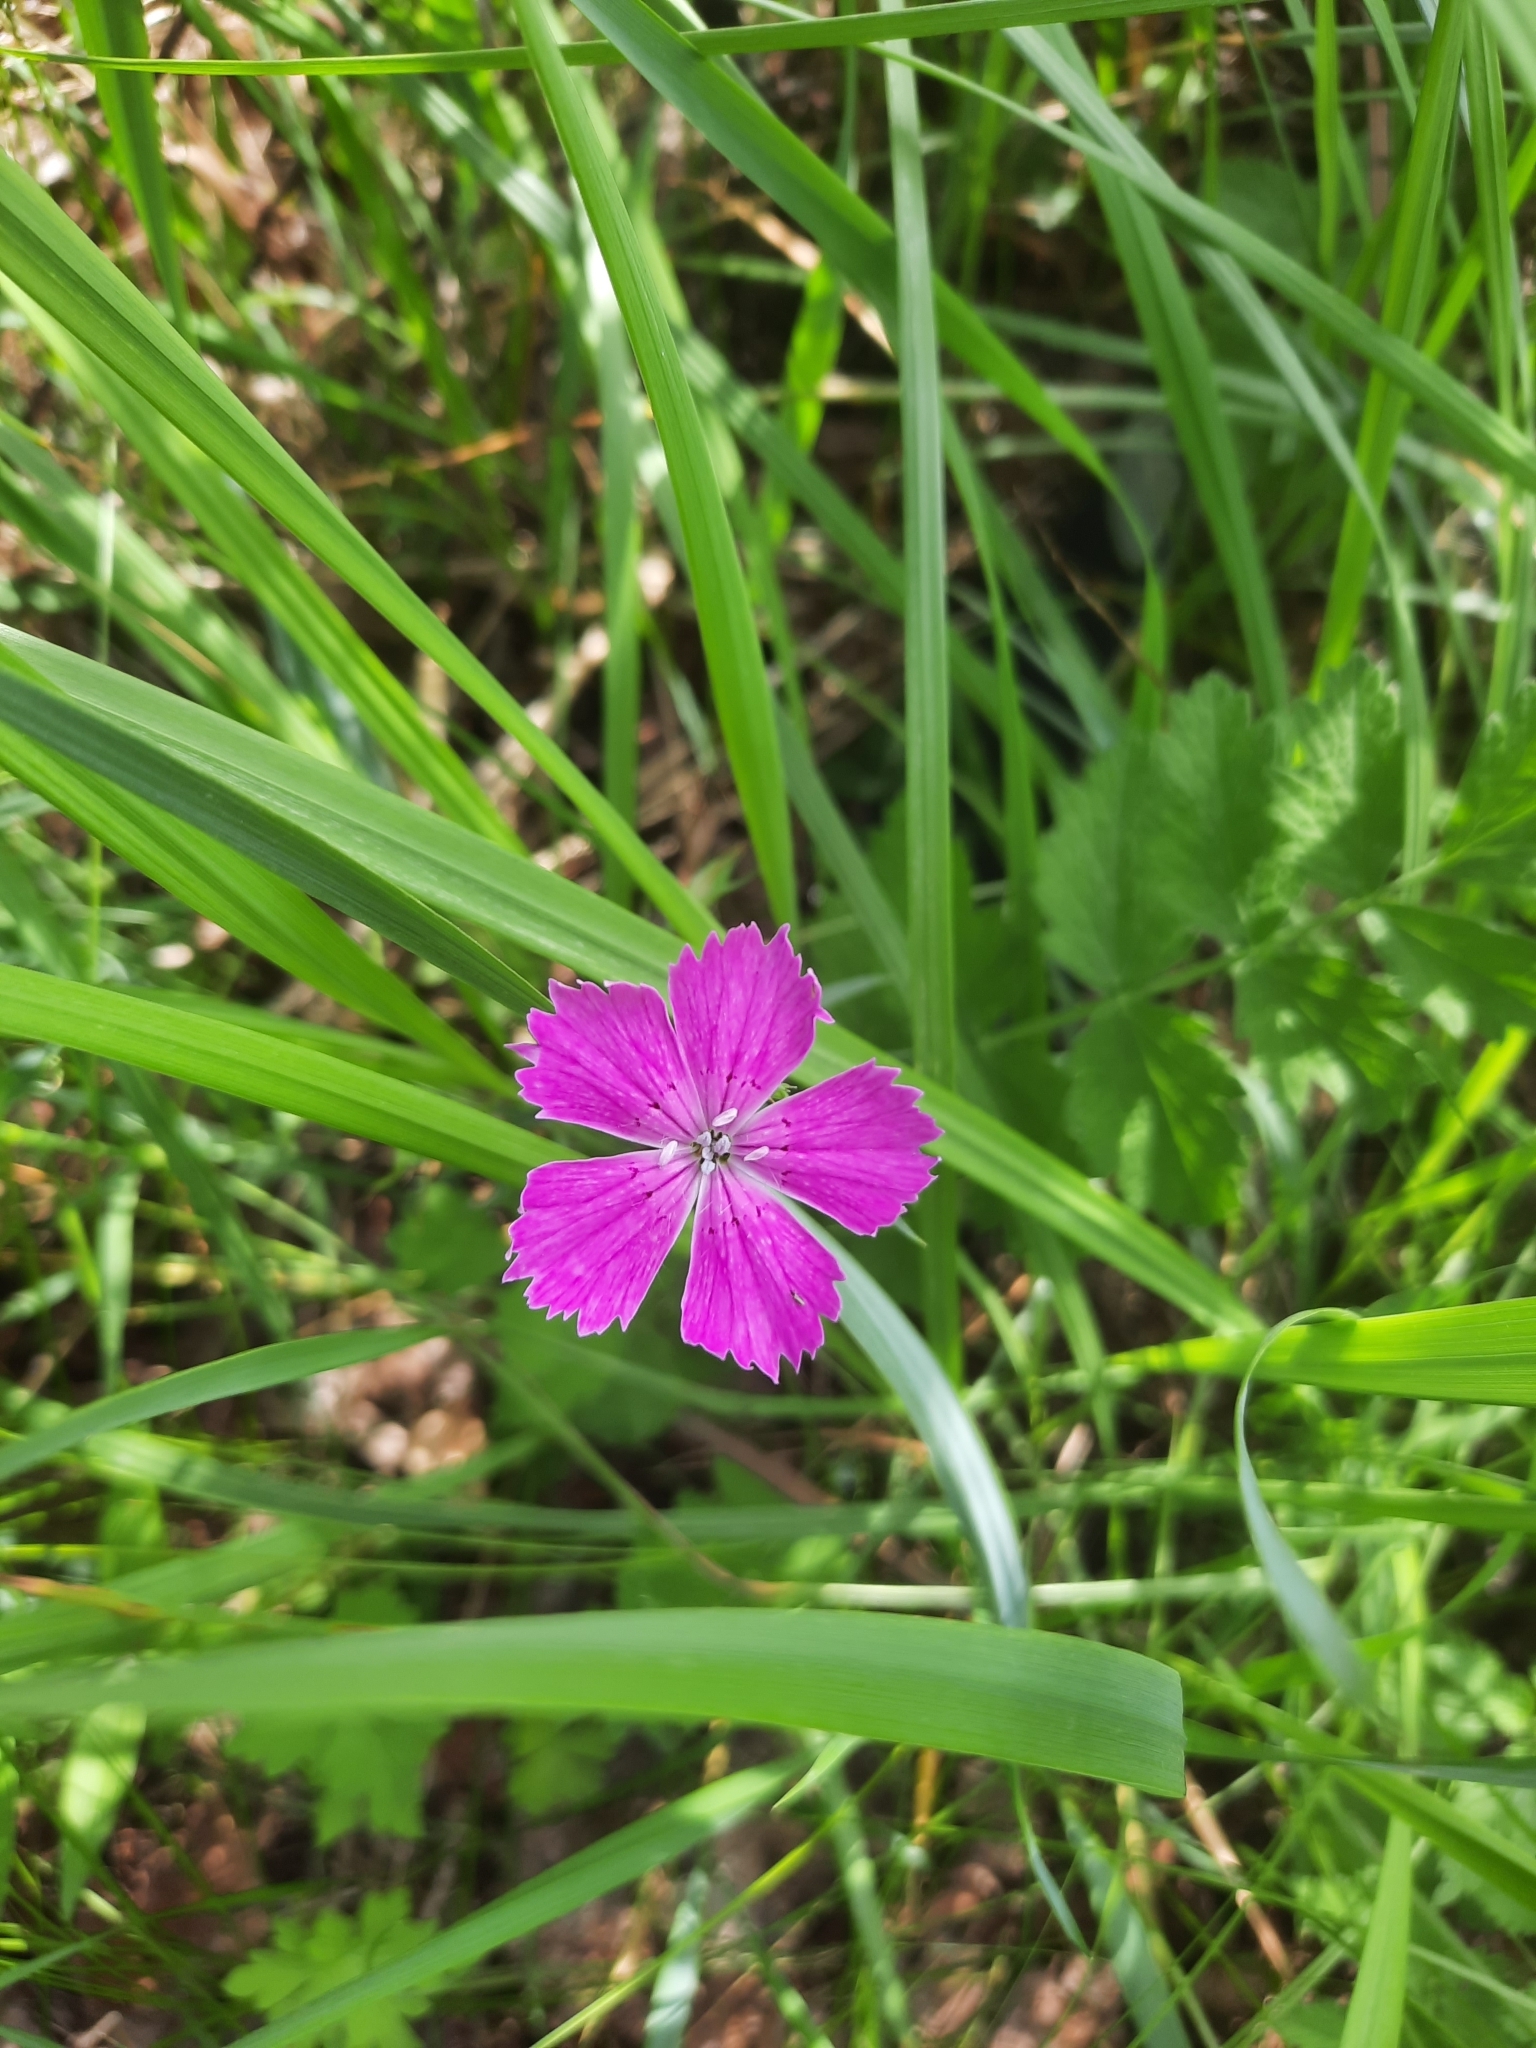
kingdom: Plantae
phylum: Tracheophyta
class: Magnoliopsida
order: Caryophyllales
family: Caryophyllaceae
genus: Dianthus
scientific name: Dianthus chinensis
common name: Rainbow pink
